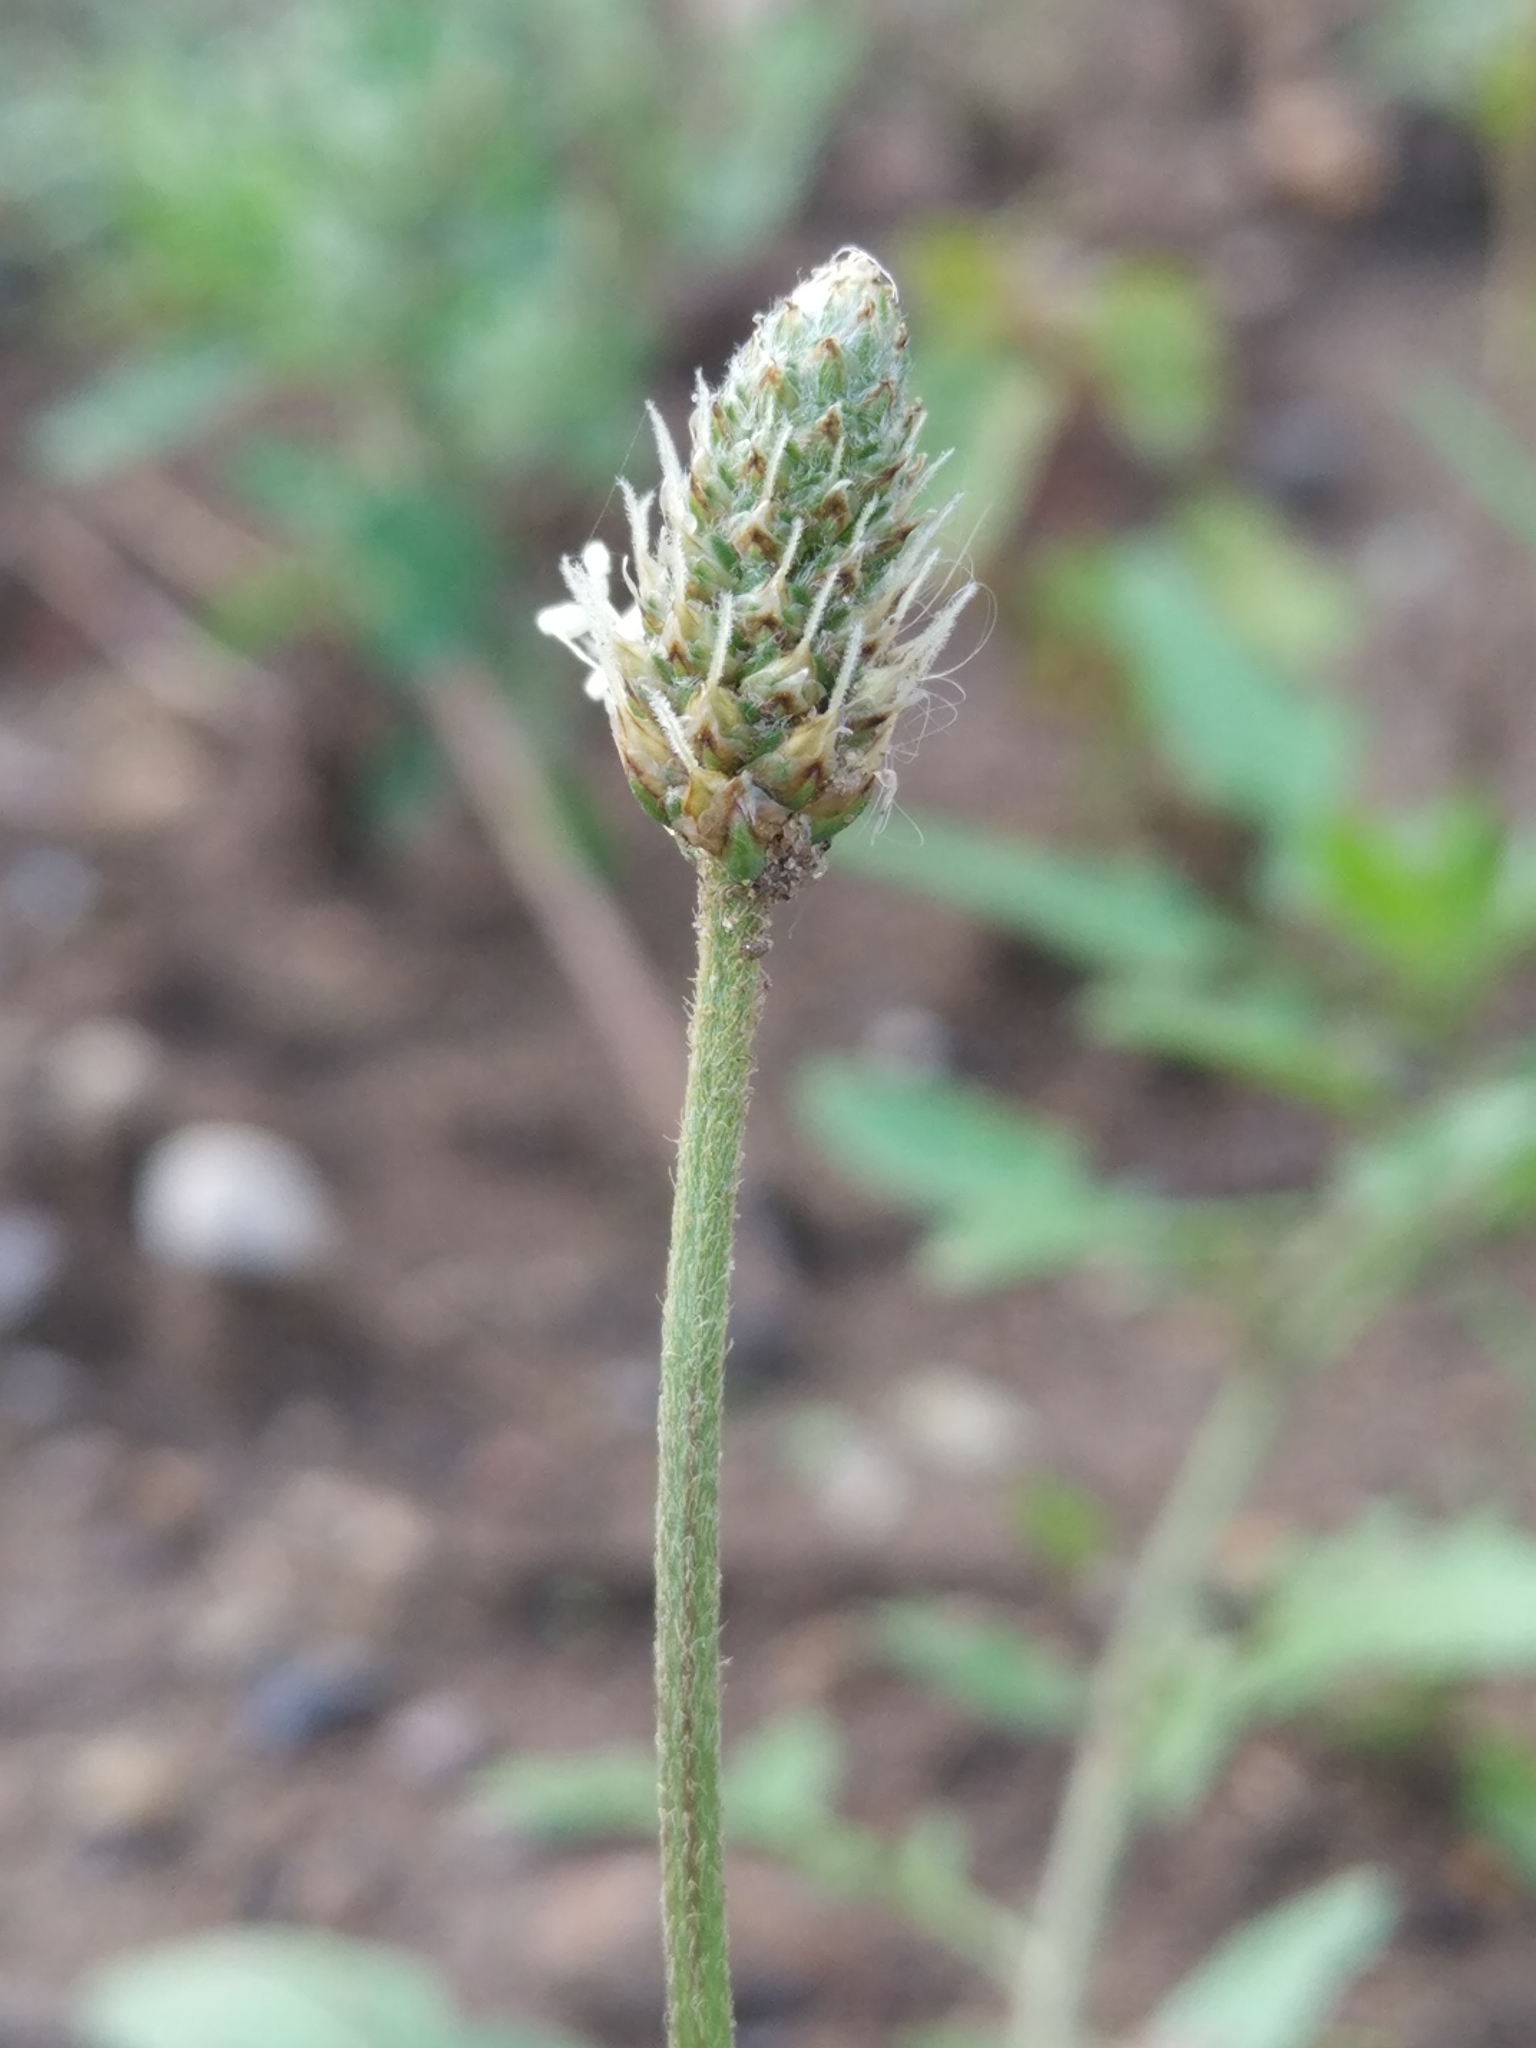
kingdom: Plantae
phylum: Tracheophyta
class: Magnoliopsida
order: Lamiales
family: Plantaginaceae
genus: Plantago
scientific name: Plantago lanceolata
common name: Ribwort plantain
